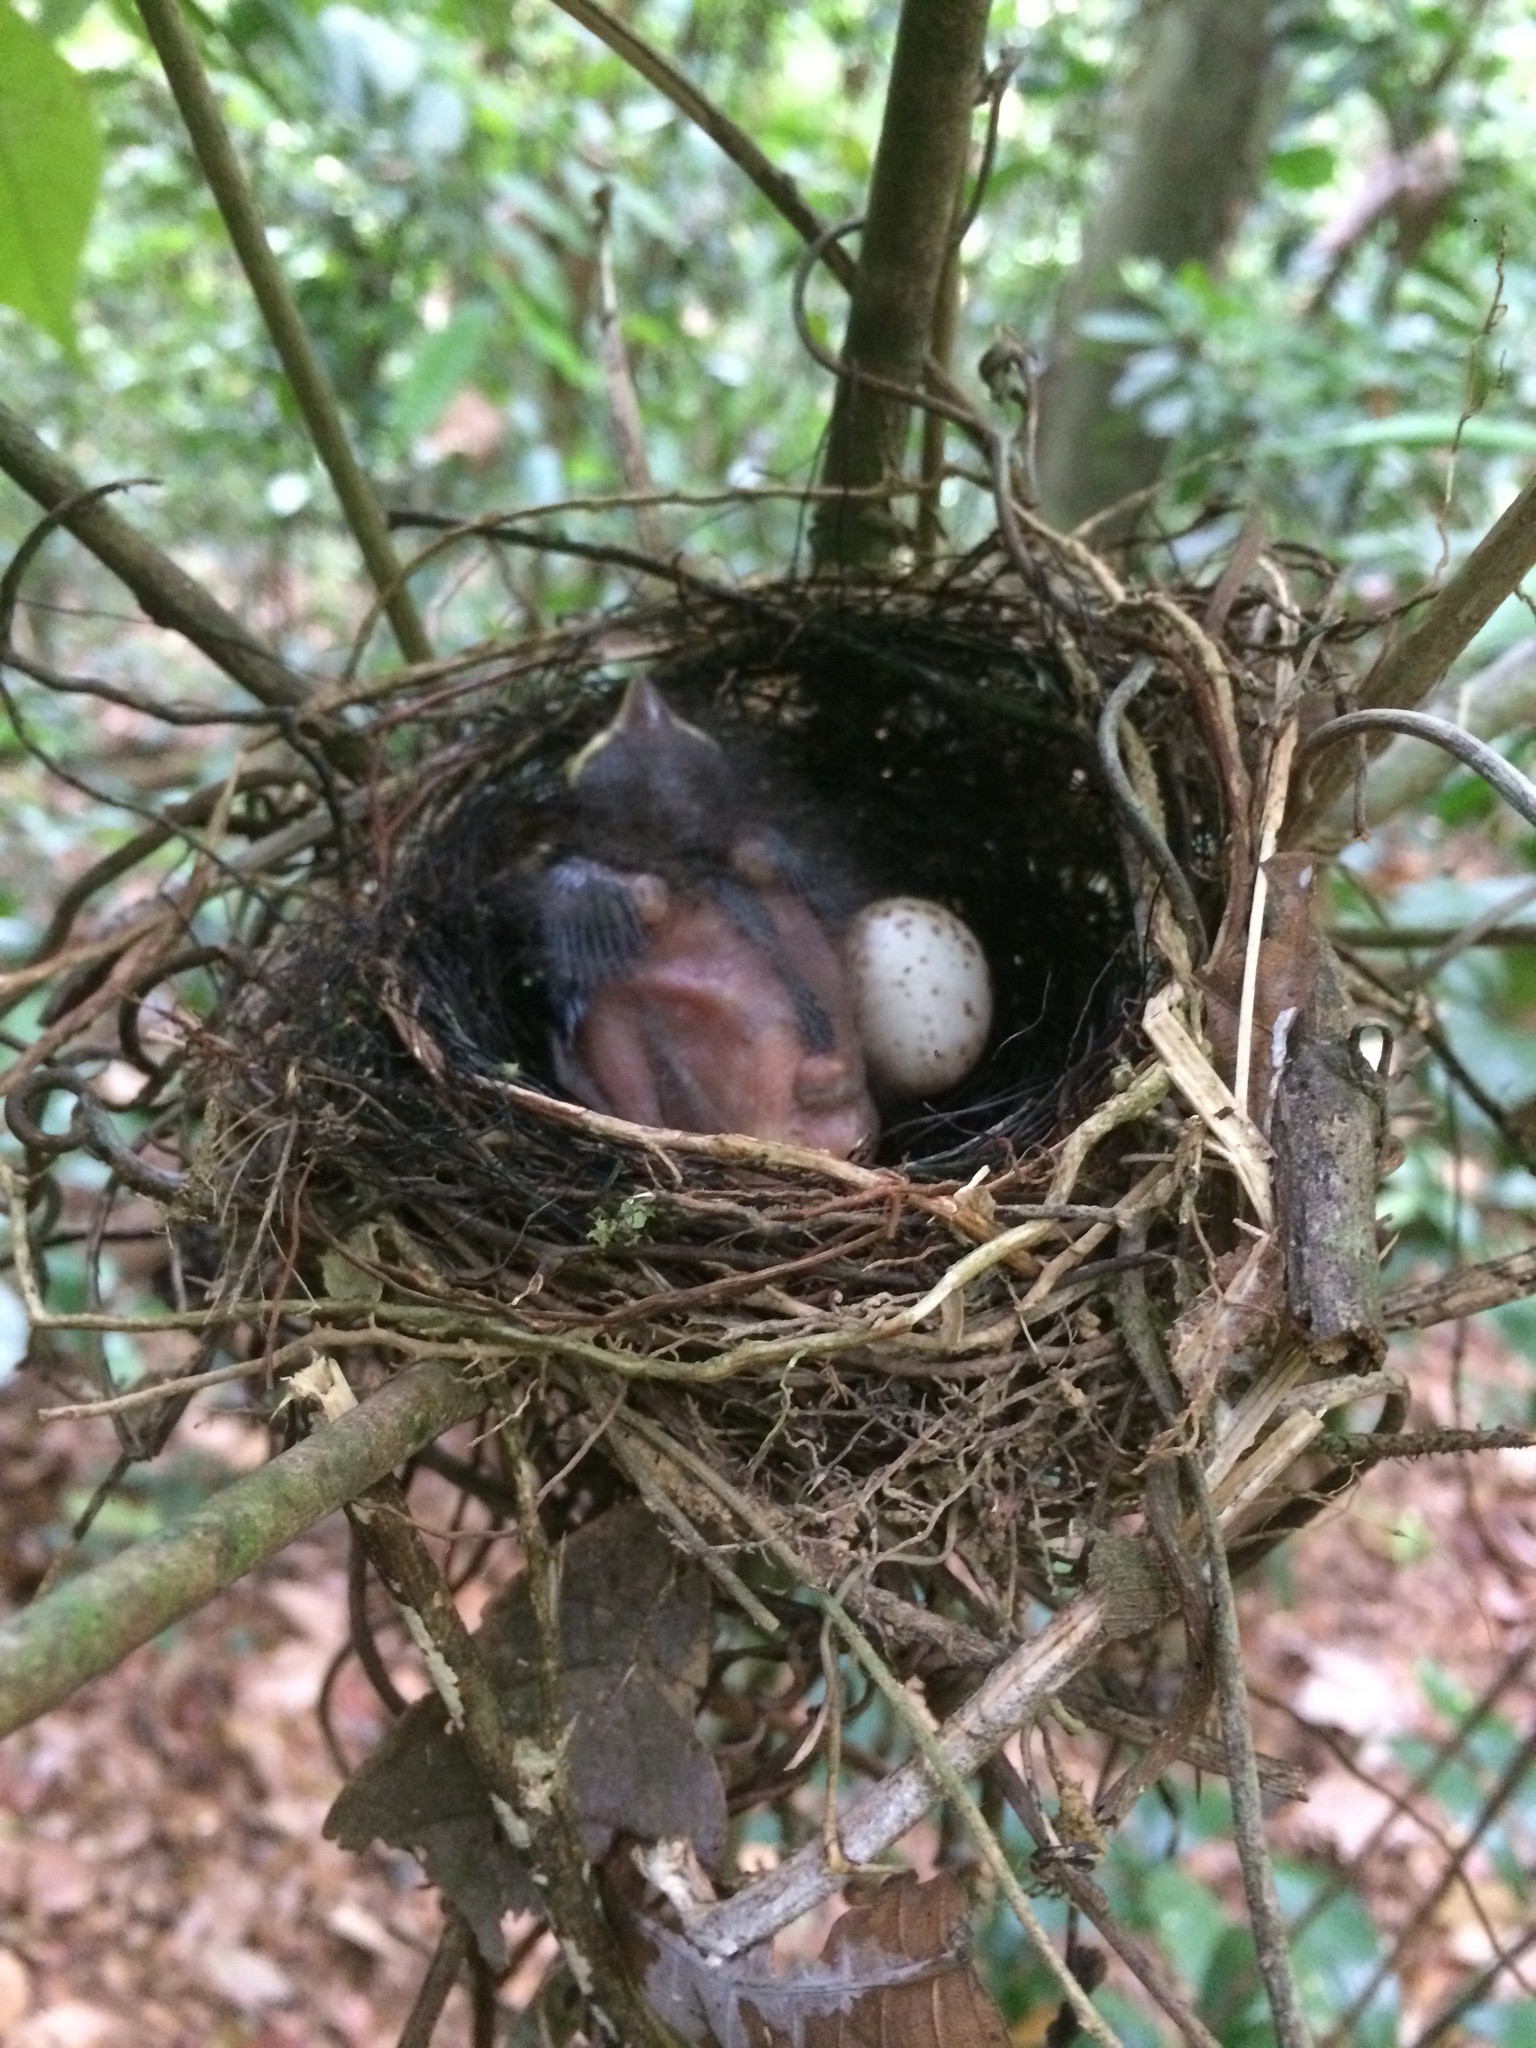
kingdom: Animalia
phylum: Chordata
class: Aves
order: Passeriformes
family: Cardinalidae
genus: Habia
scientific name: Habia rubica
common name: Red-crowned ant-tanager
